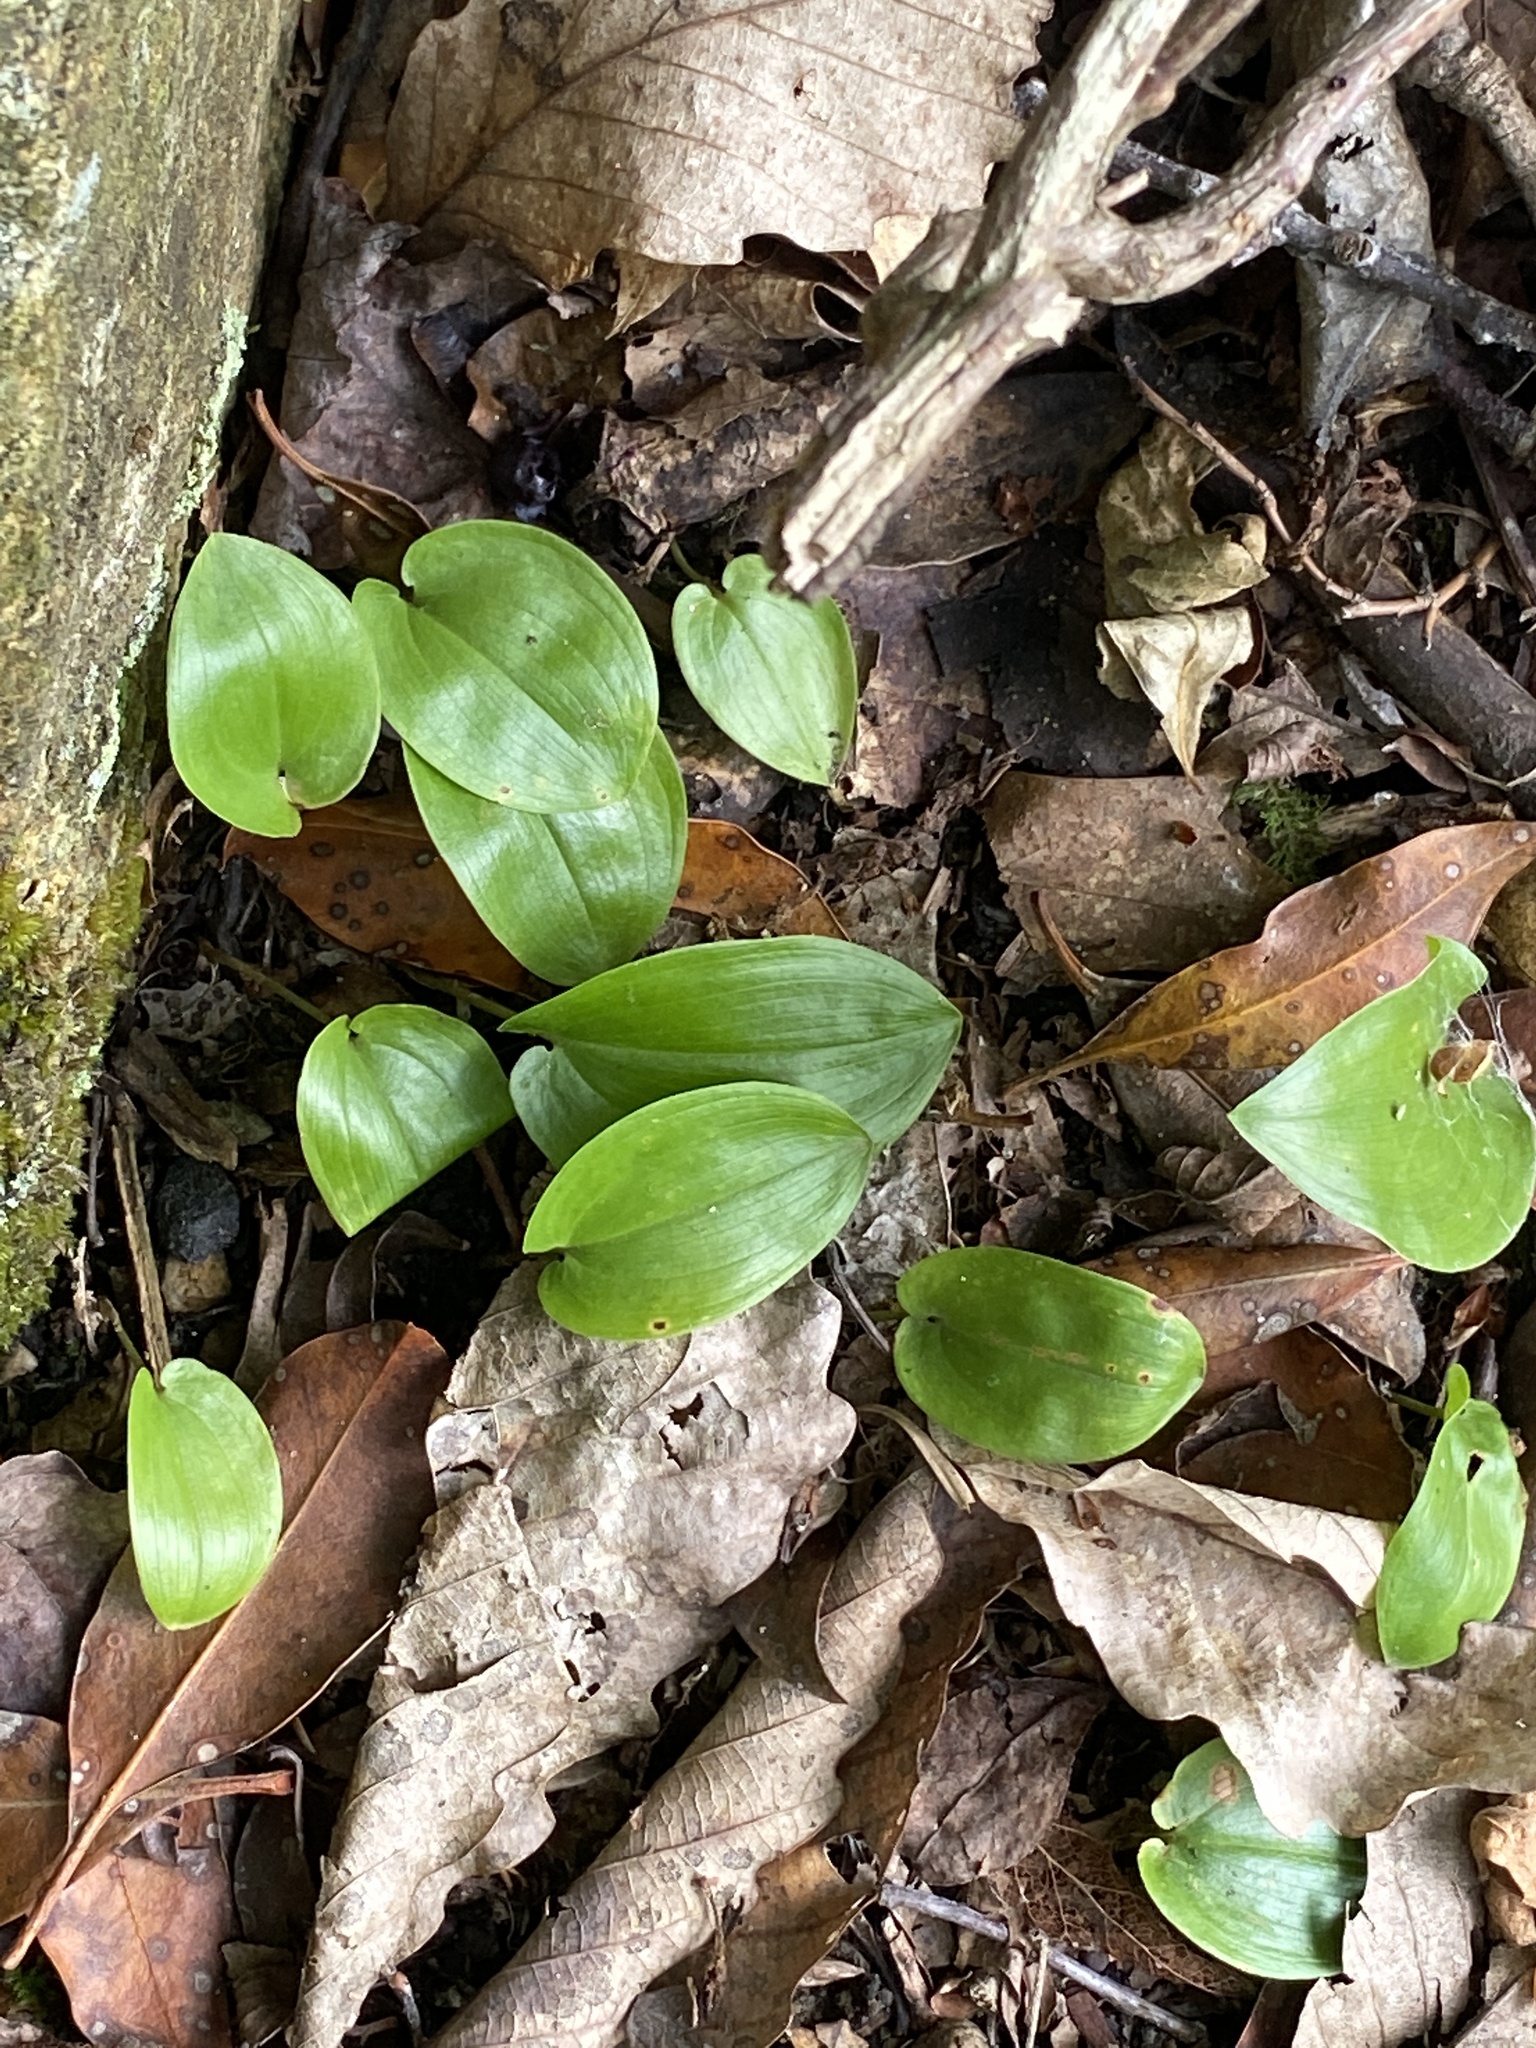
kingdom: Plantae
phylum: Tracheophyta
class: Liliopsida
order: Asparagales
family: Asparagaceae
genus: Maianthemum
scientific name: Maianthemum canadense
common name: False lily-of-the-valley
